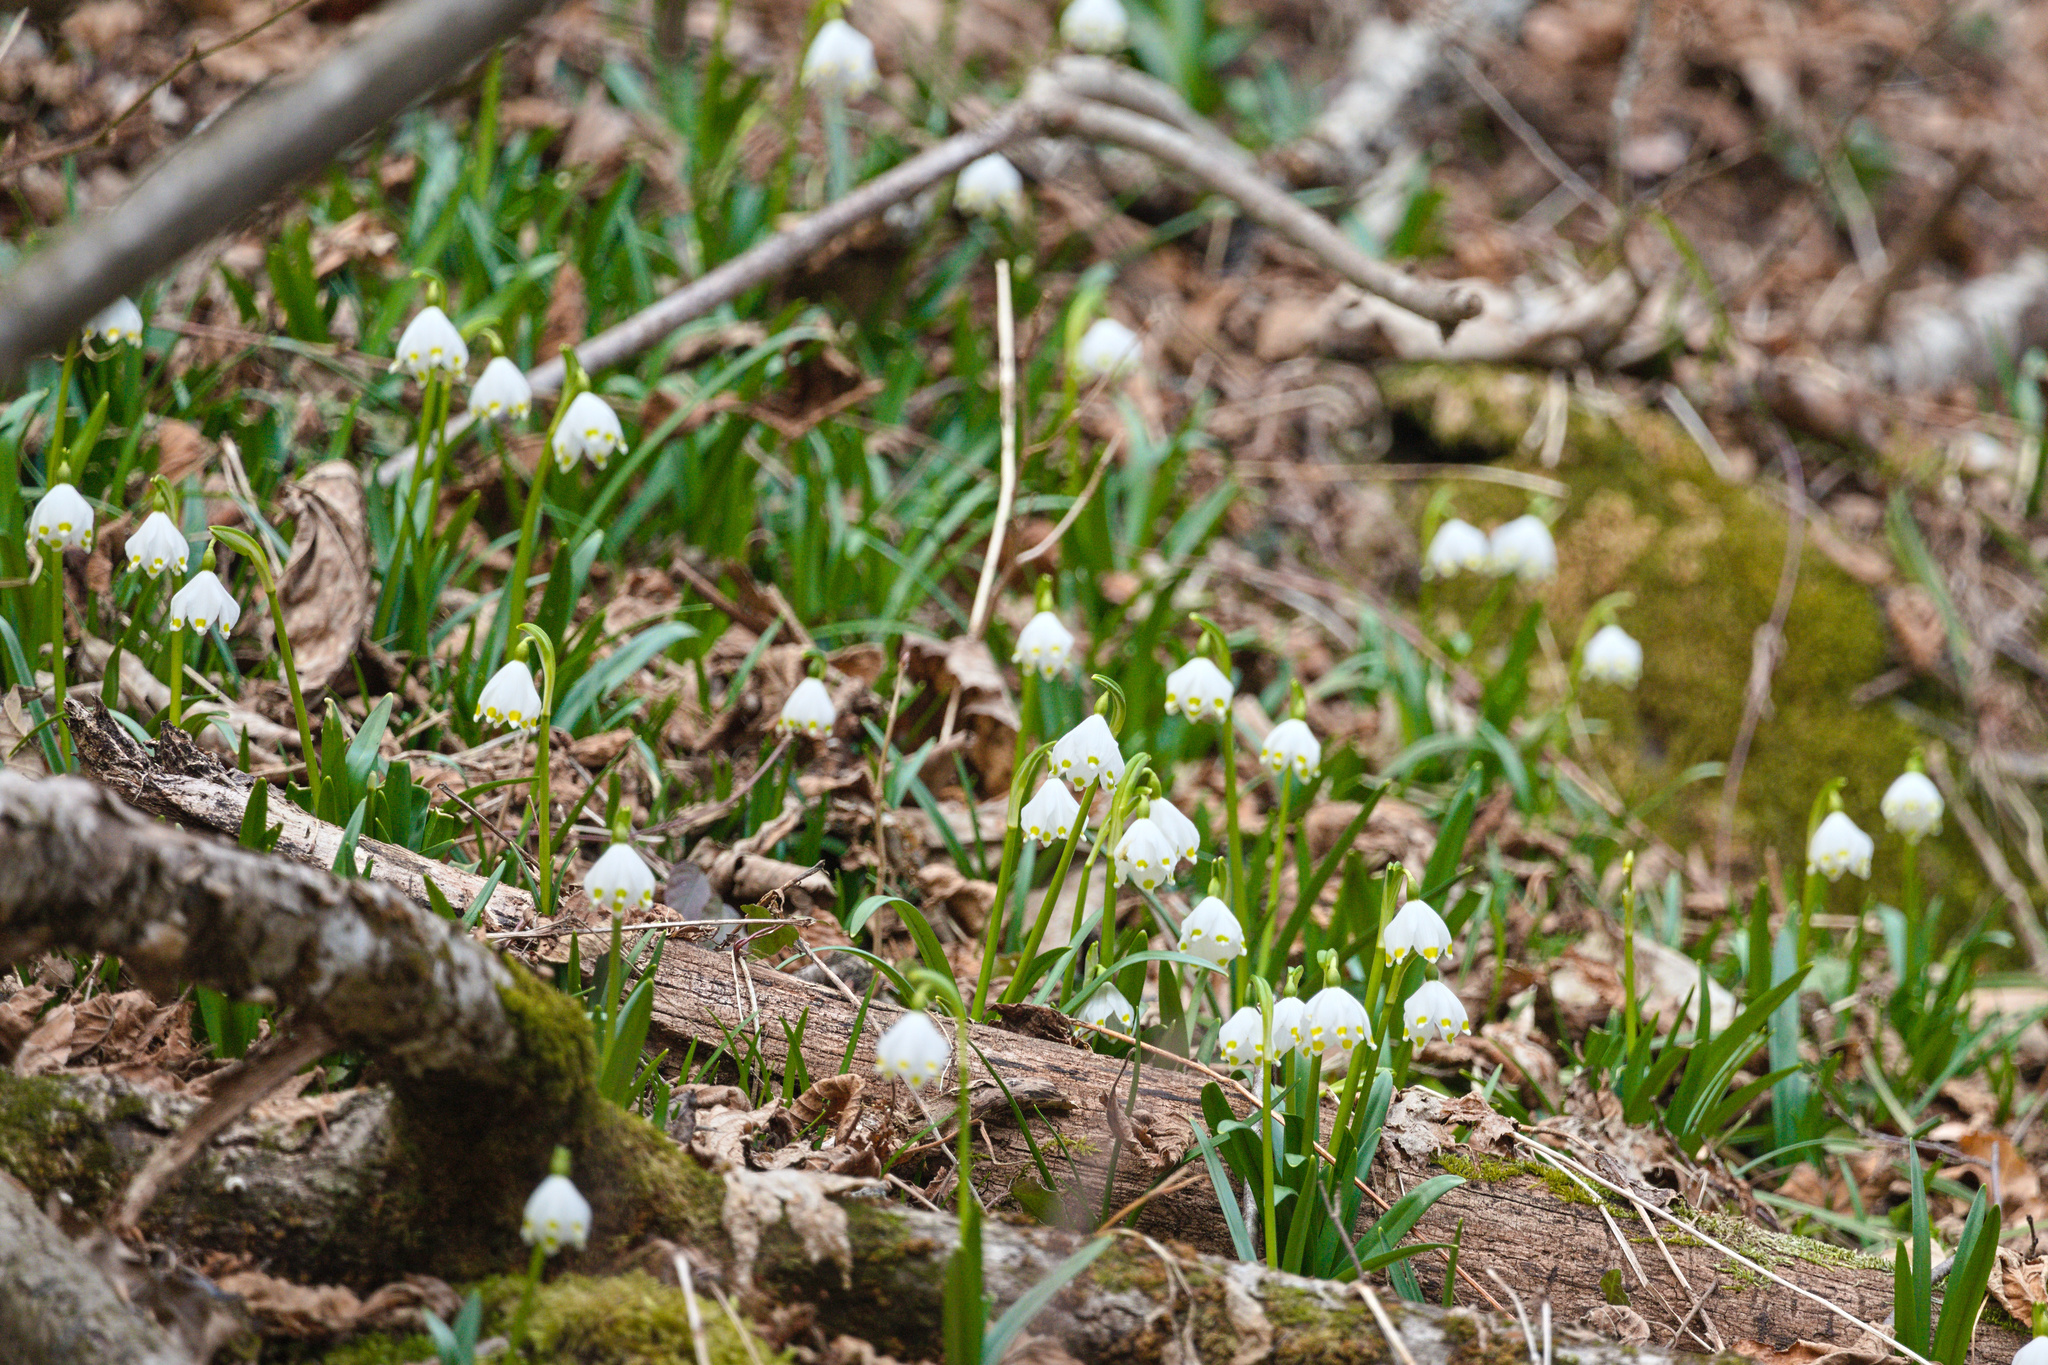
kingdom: Plantae
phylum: Tracheophyta
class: Liliopsida
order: Asparagales
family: Amaryllidaceae
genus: Leucojum
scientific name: Leucojum vernum
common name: Spring snowflake
